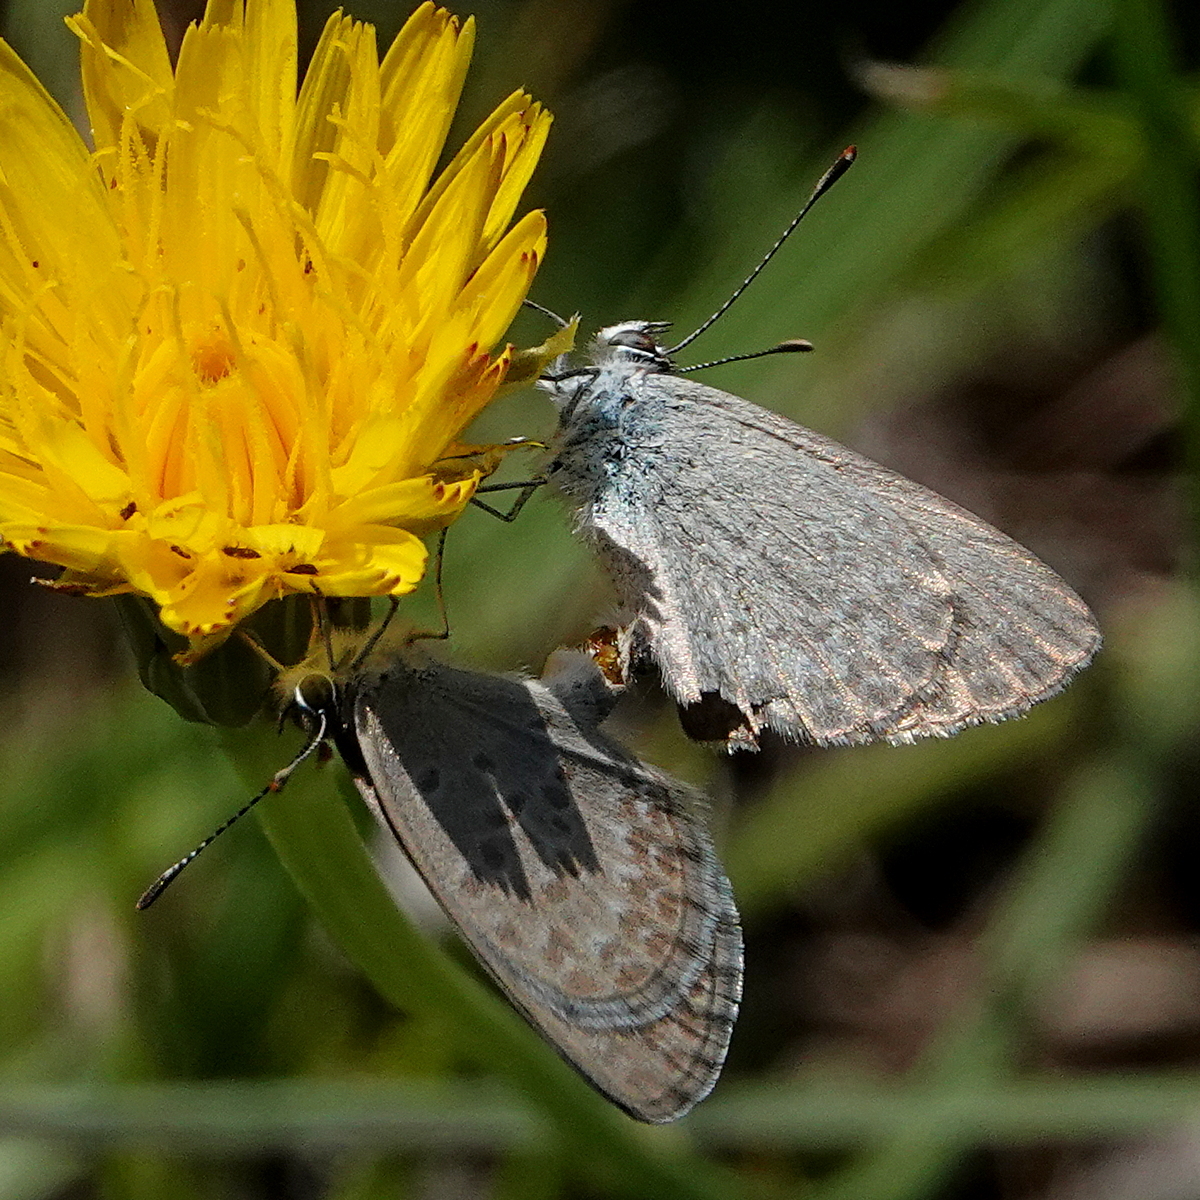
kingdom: Animalia
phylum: Arthropoda
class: Insecta
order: Lepidoptera
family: Lycaenidae
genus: Zizina
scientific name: Zizina otis
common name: Lesser grass blue
